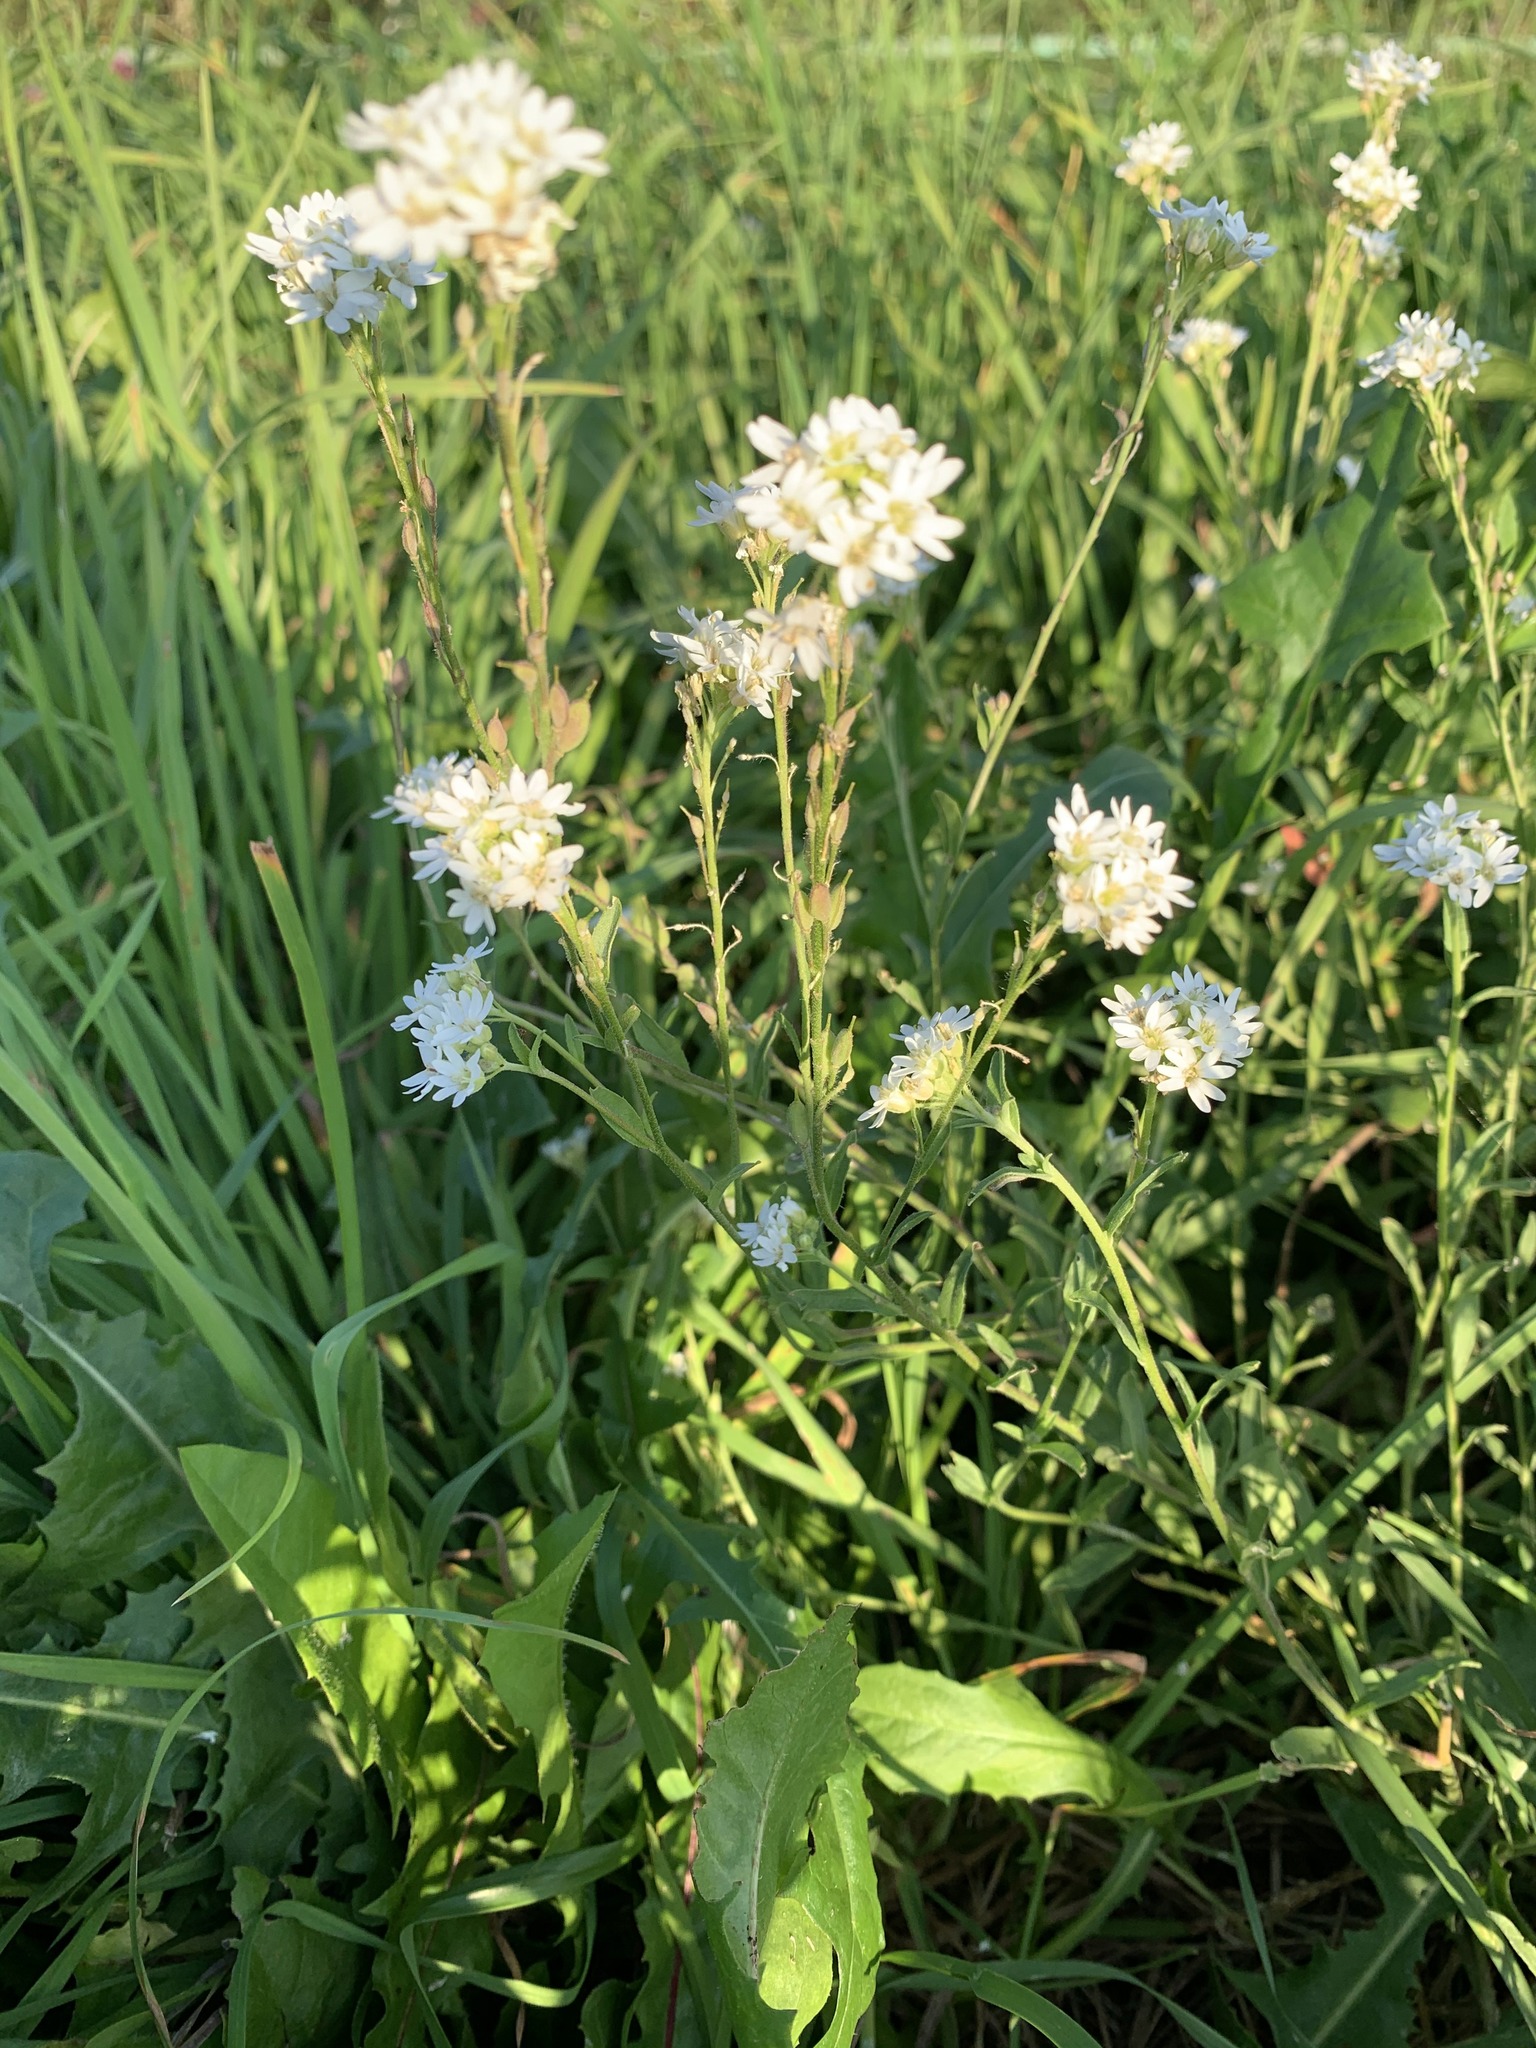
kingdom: Plantae
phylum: Tracheophyta
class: Magnoliopsida
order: Brassicales
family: Brassicaceae
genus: Berteroa
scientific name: Berteroa incana
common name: Hoary alison
